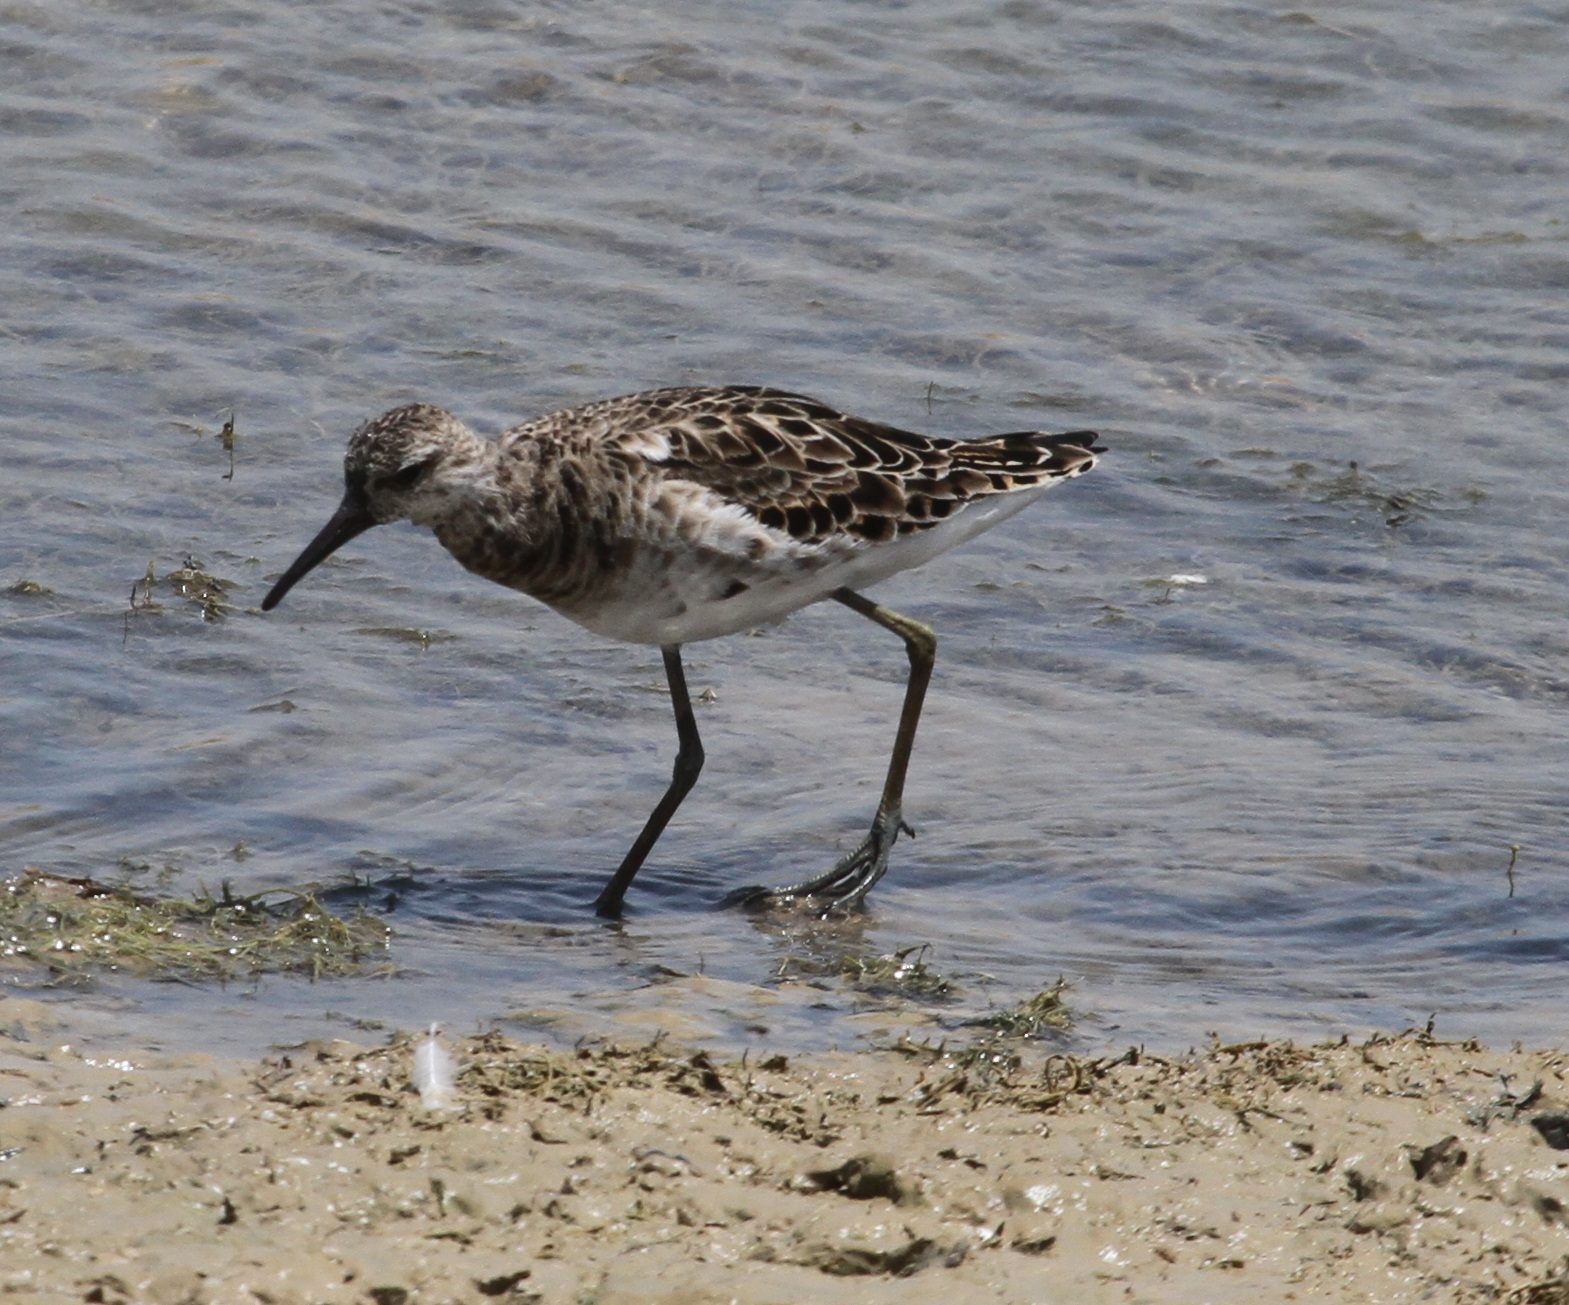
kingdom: Animalia
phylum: Chordata
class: Aves
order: Charadriiformes
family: Scolopacidae
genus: Calidris
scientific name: Calidris pugnax
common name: Ruff
